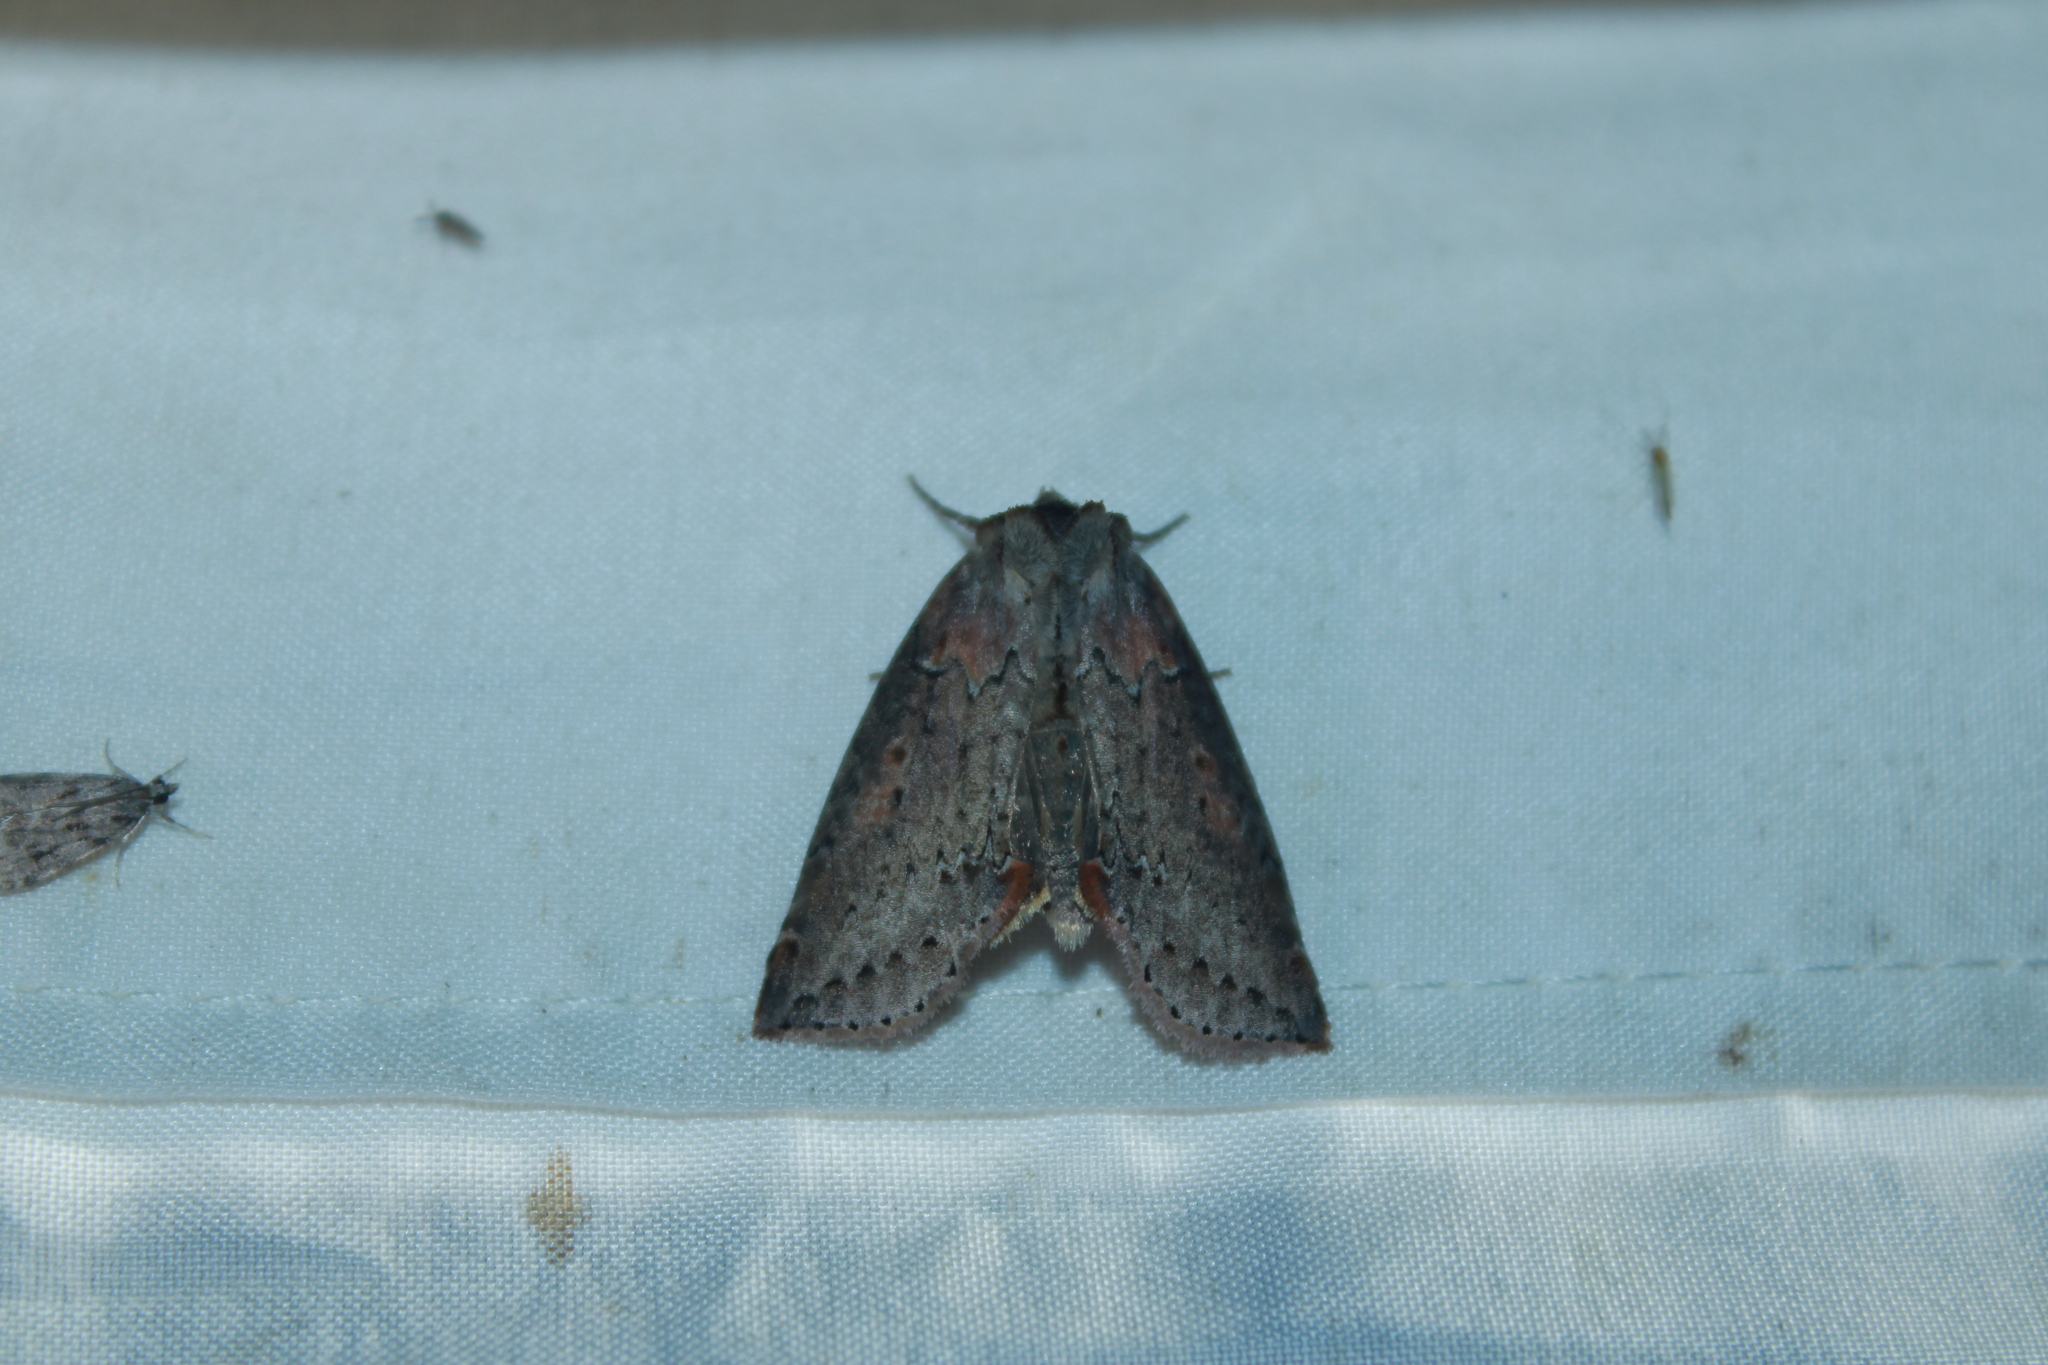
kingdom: Animalia
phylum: Arthropoda
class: Insecta
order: Lepidoptera
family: Drepanidae
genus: Pseudothyatira
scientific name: Pseudothyatira cymatophoroides
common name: Tufted thyatirid moth
